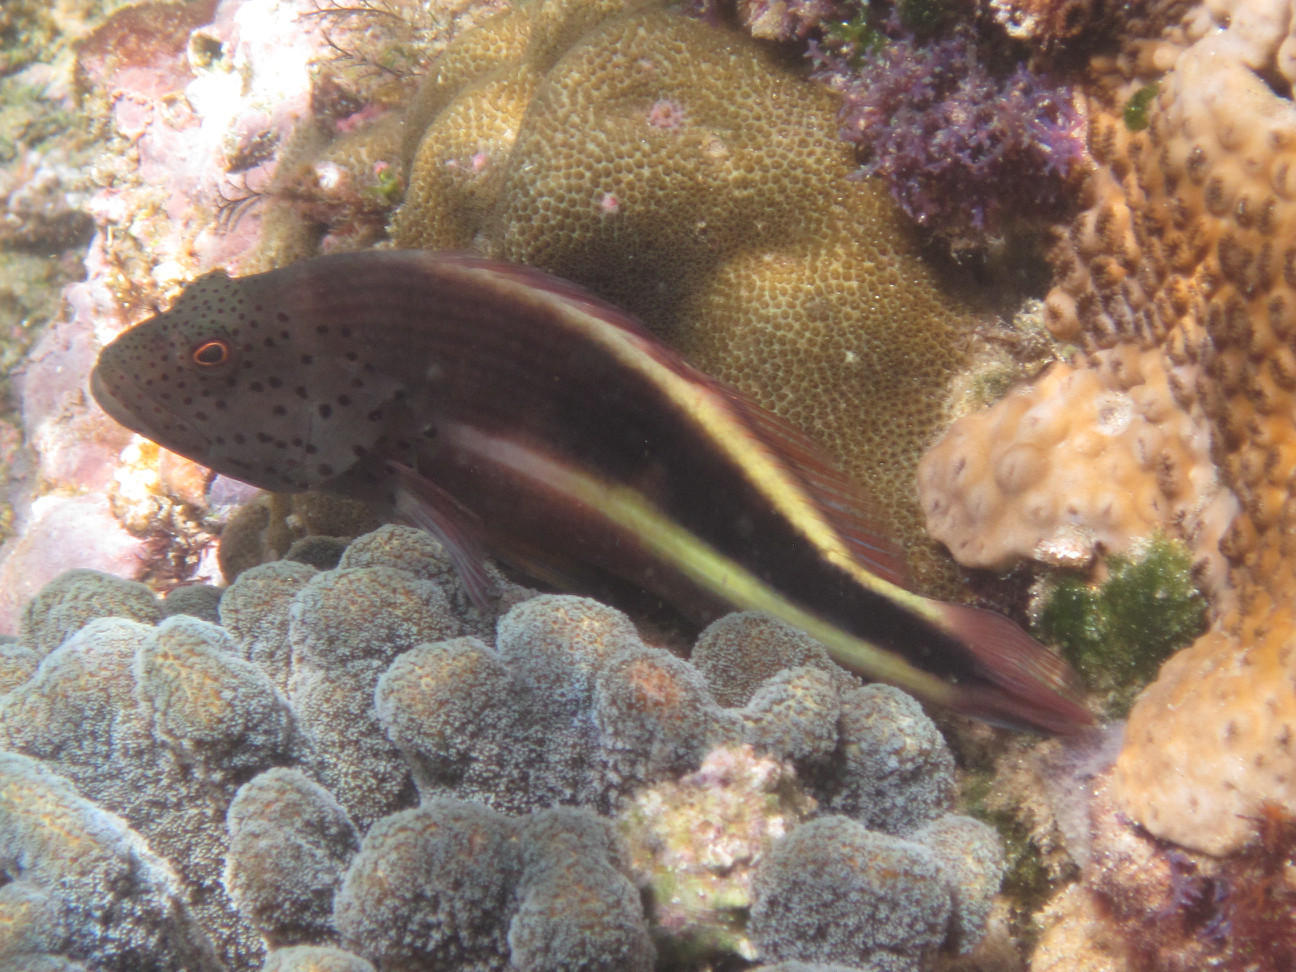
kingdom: Animalia
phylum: Chordata
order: Perciformes
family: Cirrhitidae
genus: Paracirrhites
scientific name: Paracirrhites forsteri
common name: Freckled hawkfish
